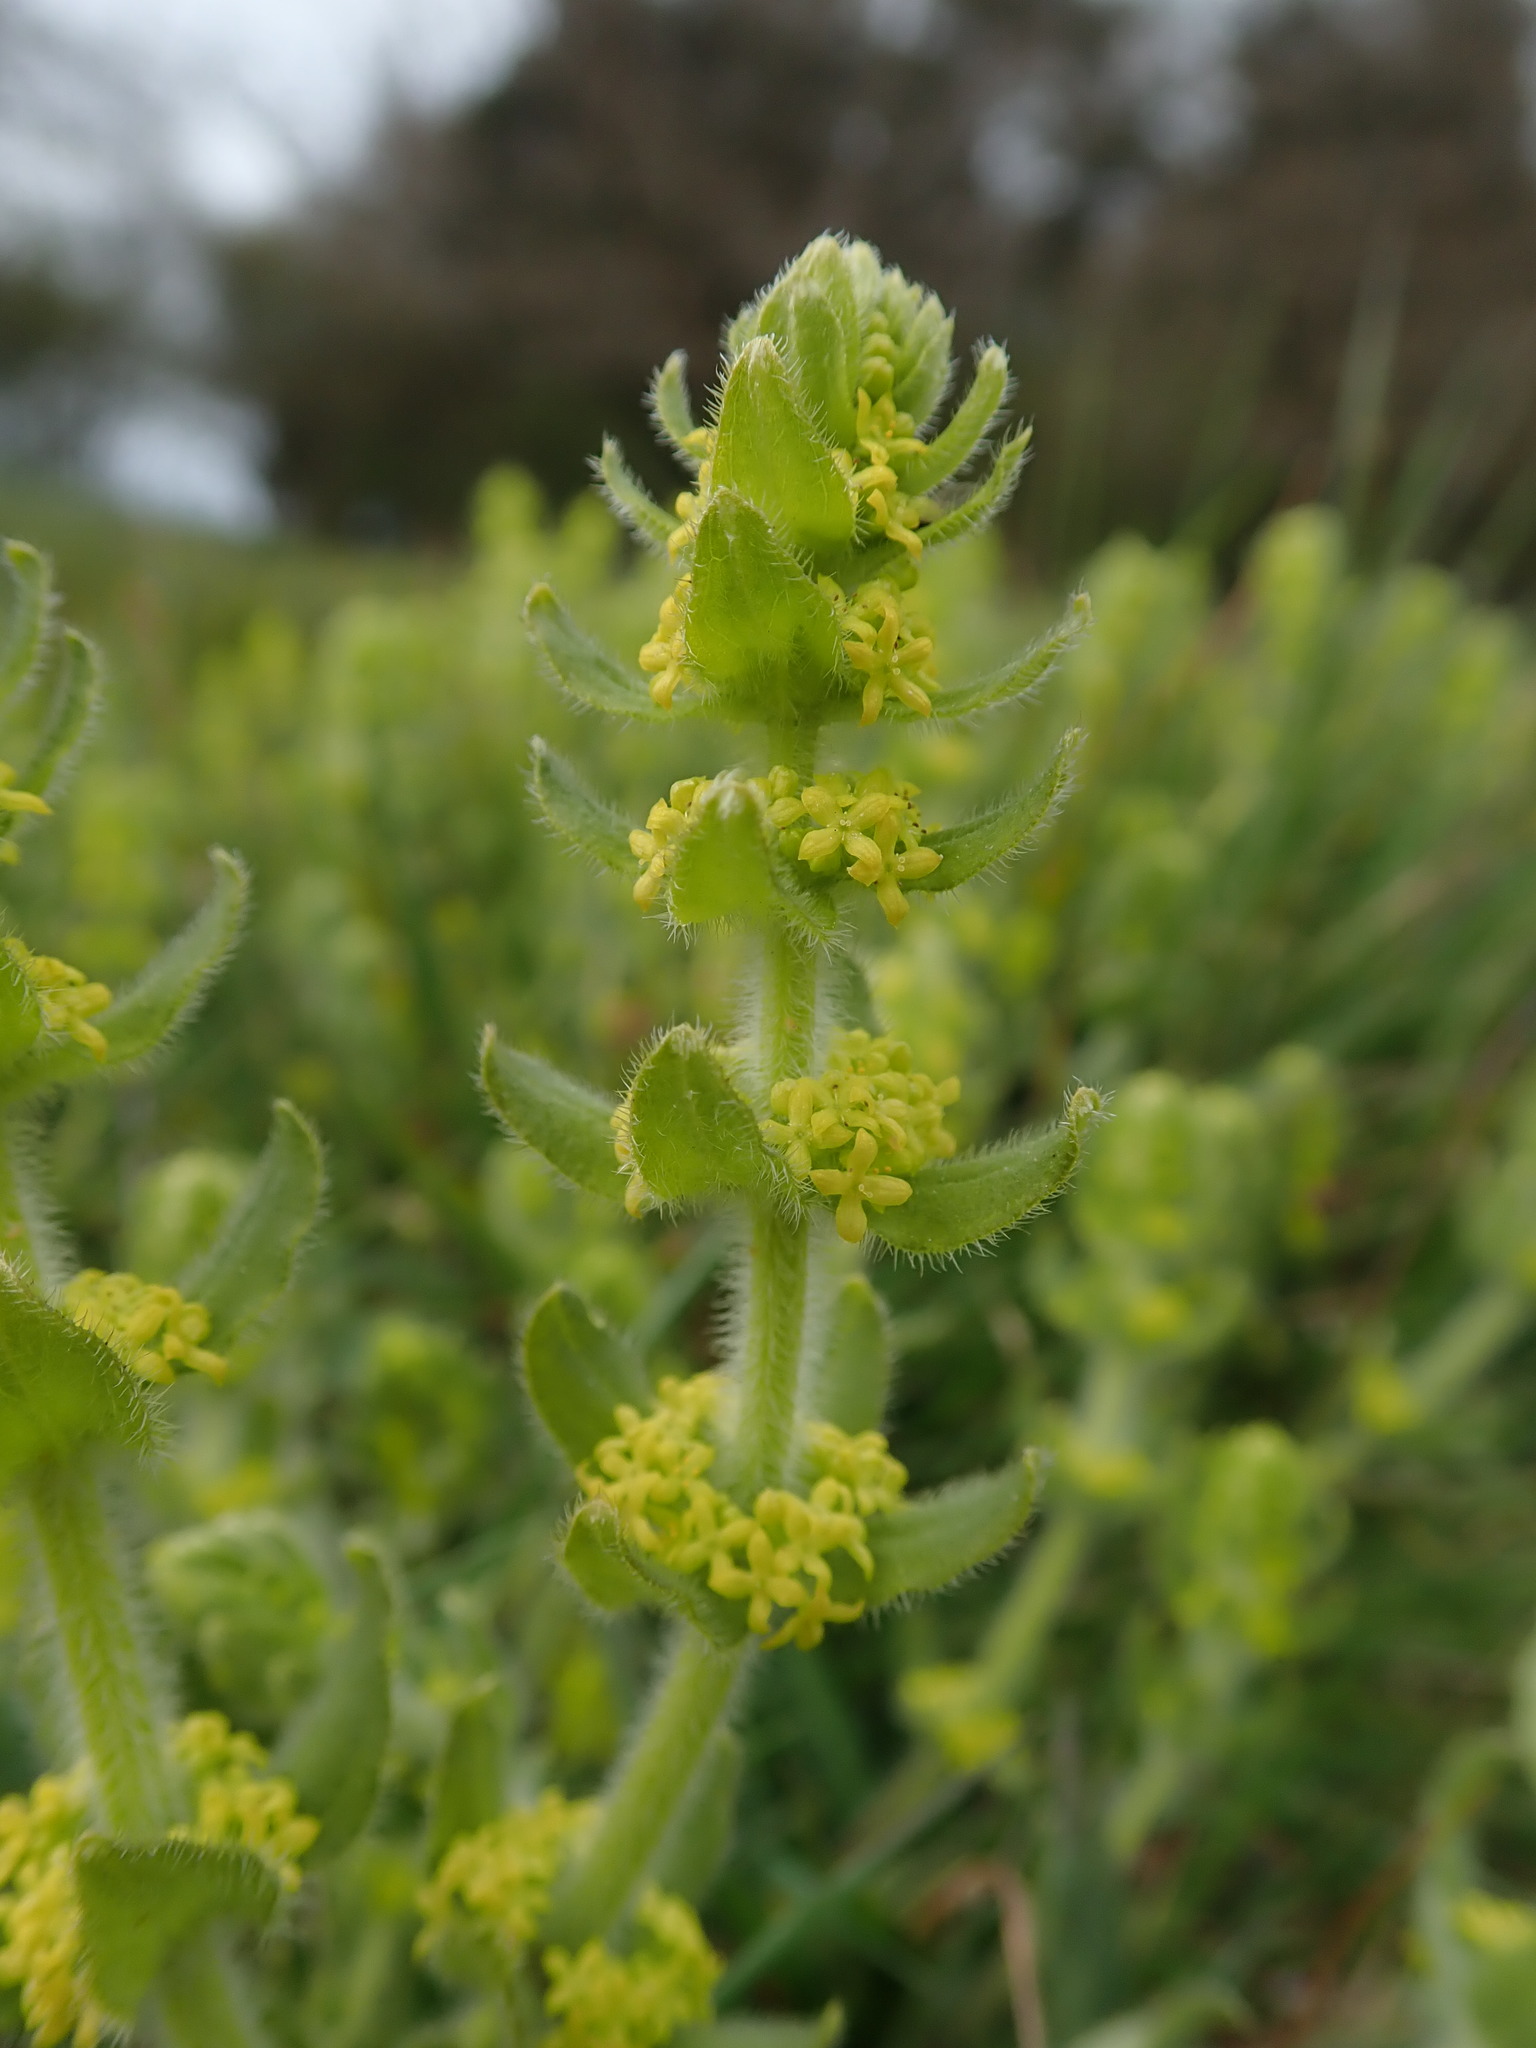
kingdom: Plantae
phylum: Tracheophyta
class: Magnoliopsida
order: Gentianales
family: Rubiaceae
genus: Cruciata
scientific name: Cruciata laevipes
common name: Crosswort
